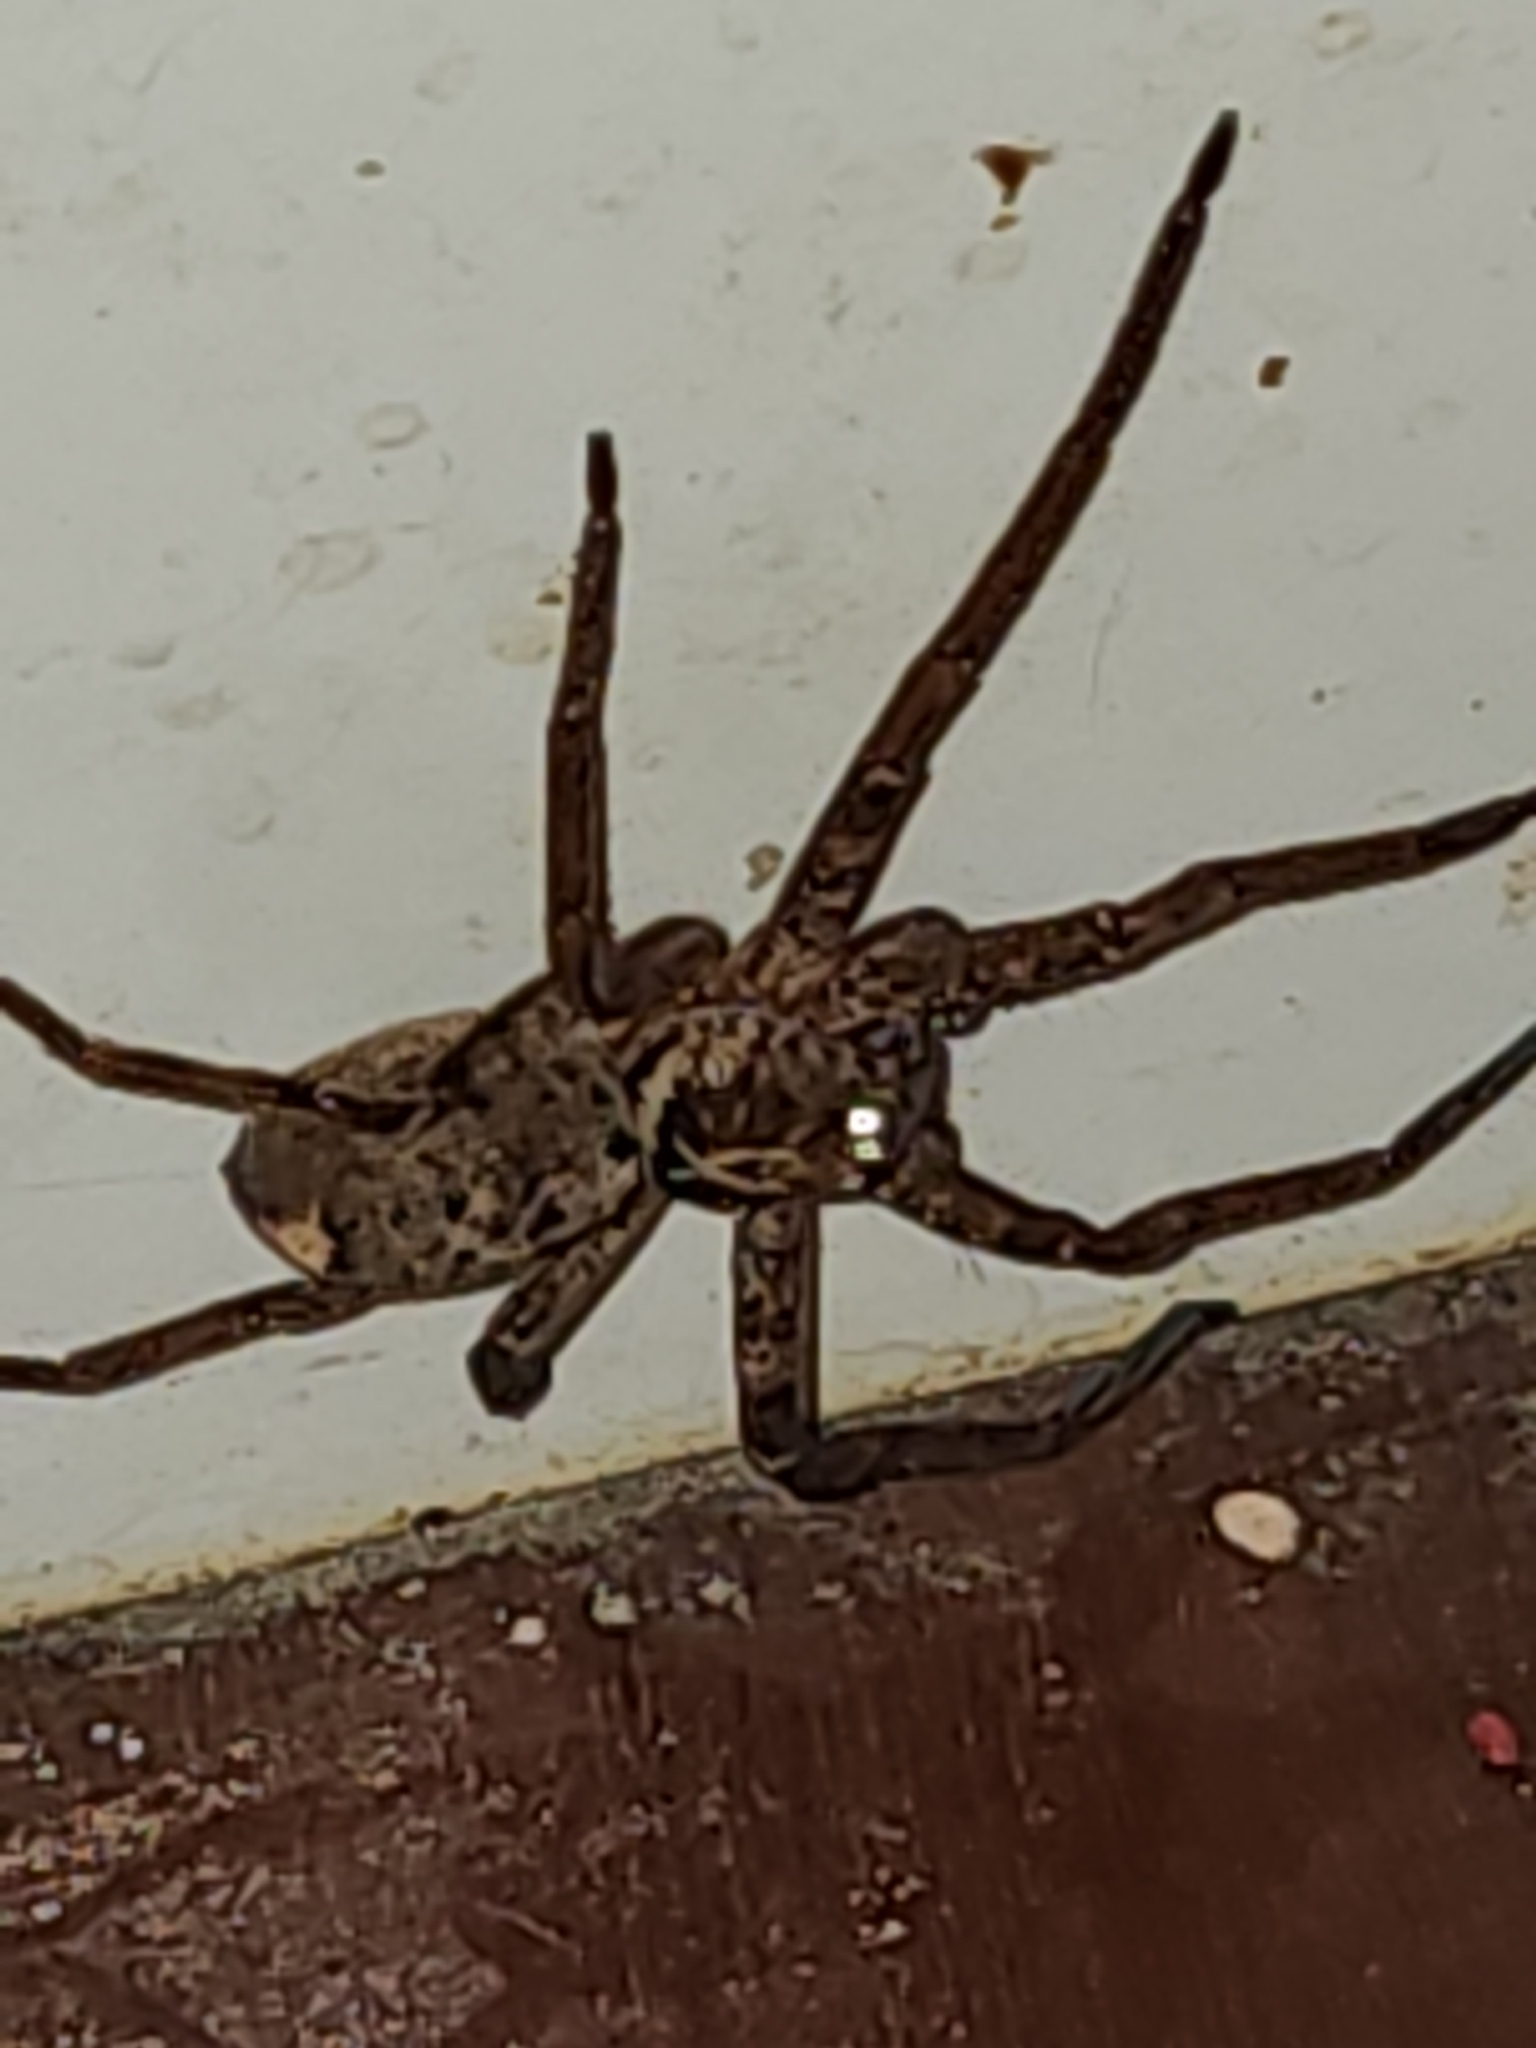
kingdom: Animalia
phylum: Arthropoda
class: Arachnida
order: Araneae
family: Sparassidae
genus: Heteropoda
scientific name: Heteropoda cervina
